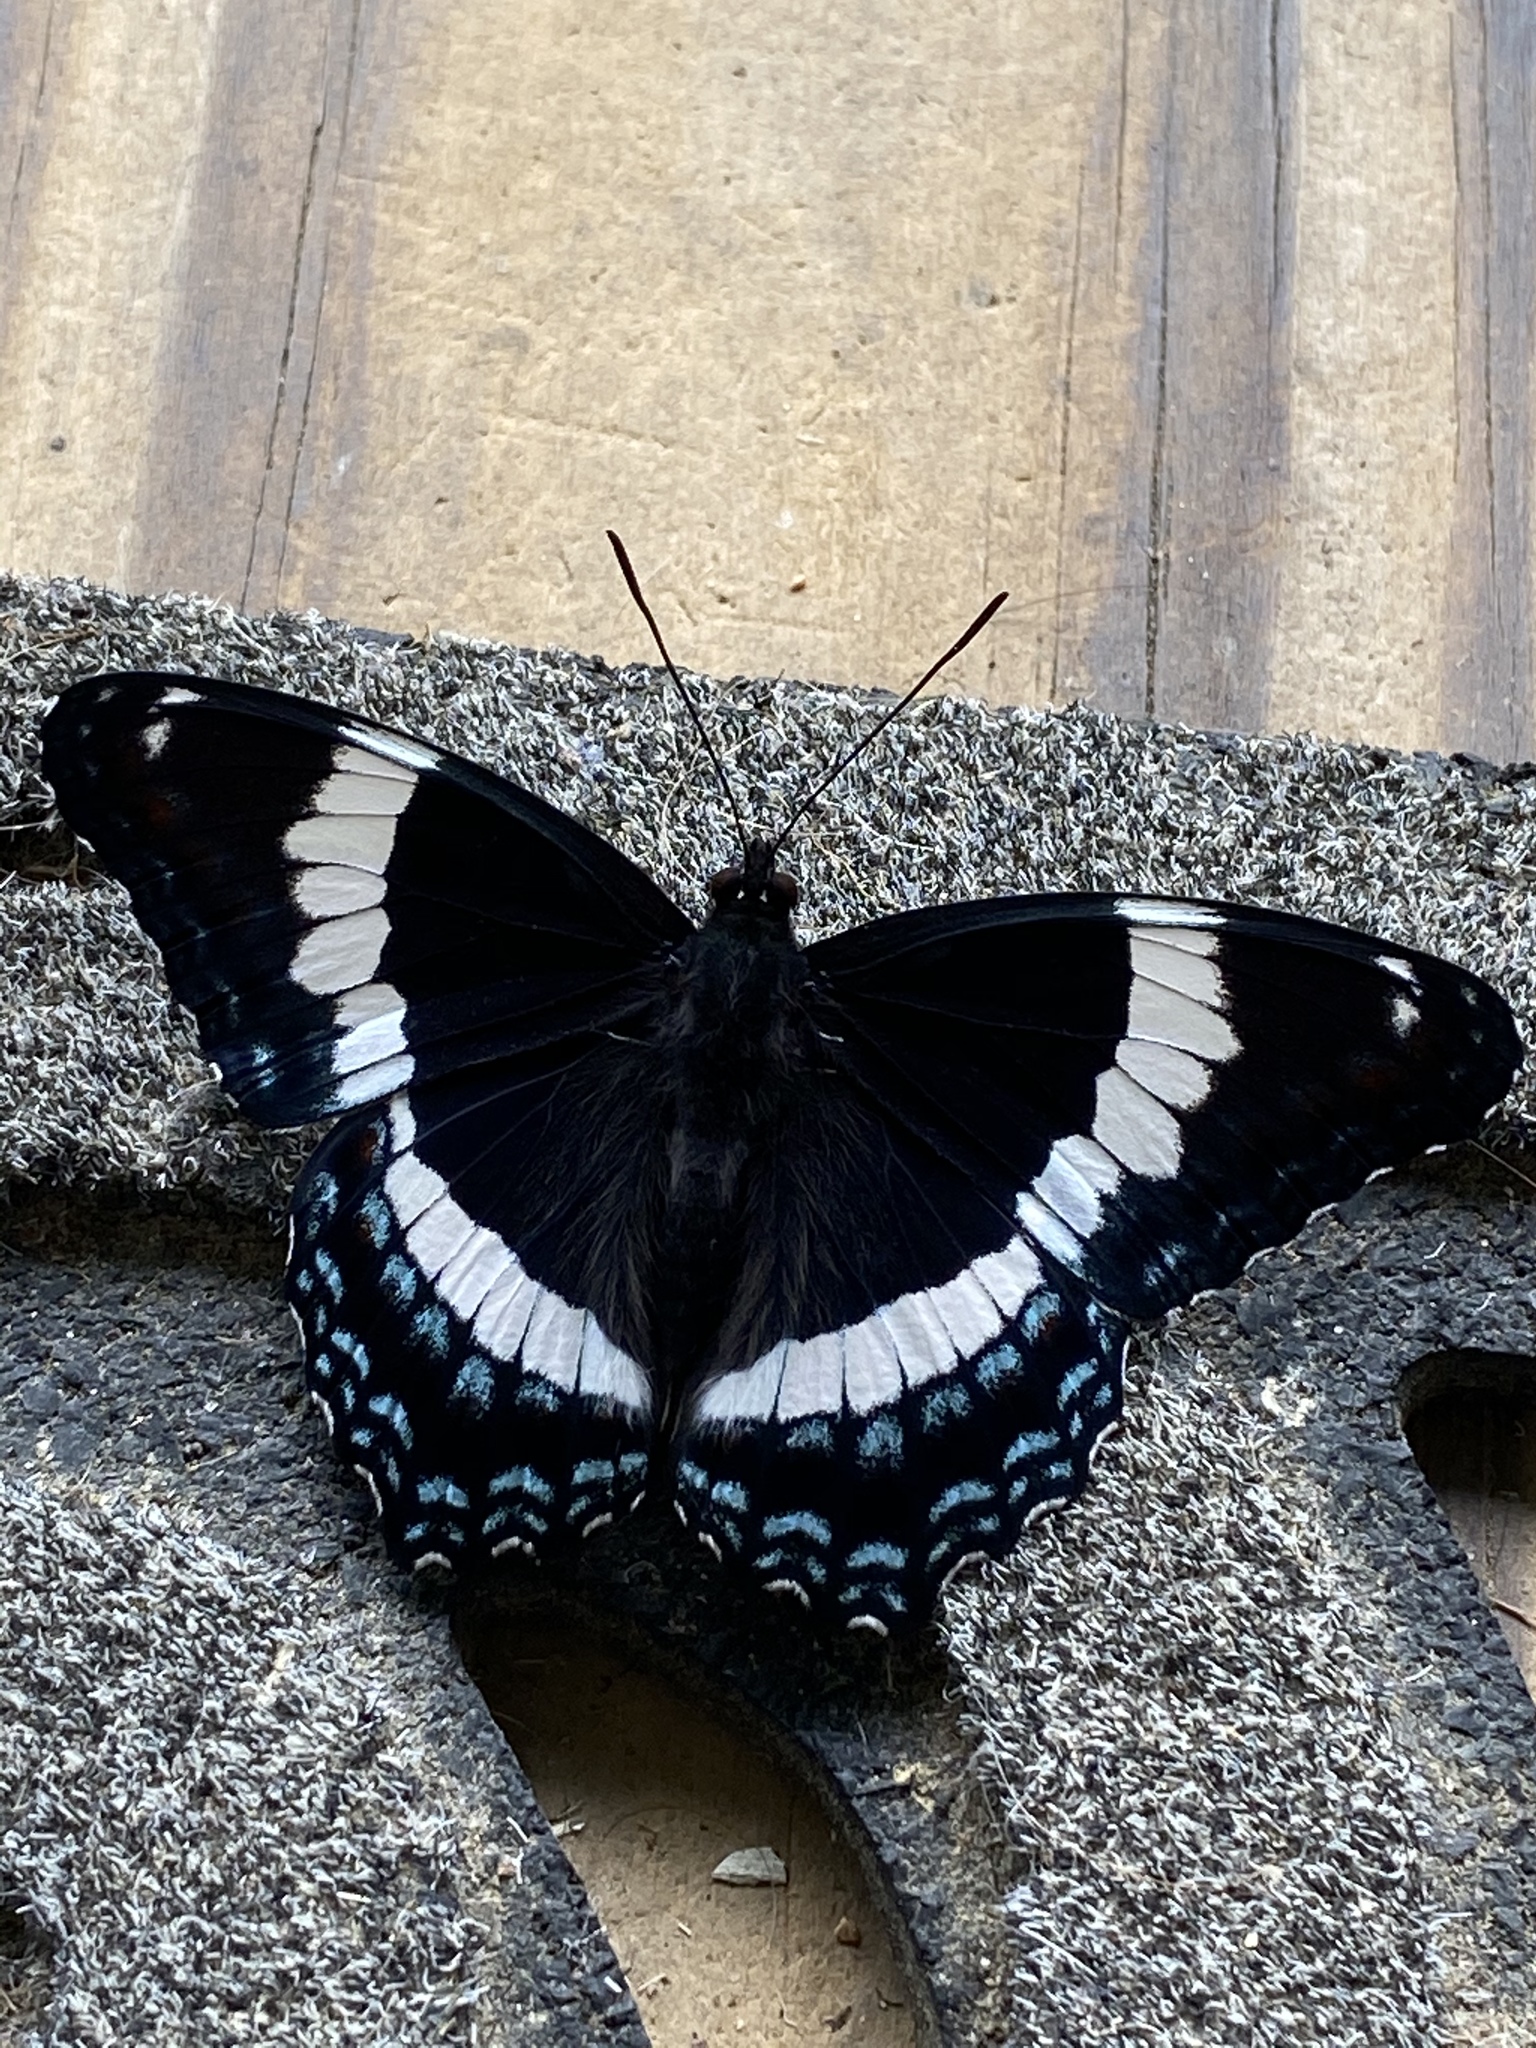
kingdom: Animalia
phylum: Arthropoda
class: Insecta
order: Lepidoptera
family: Nymphalidae
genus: Limenitis
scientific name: Limenitis arthemis
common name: Red-spotted admiral
